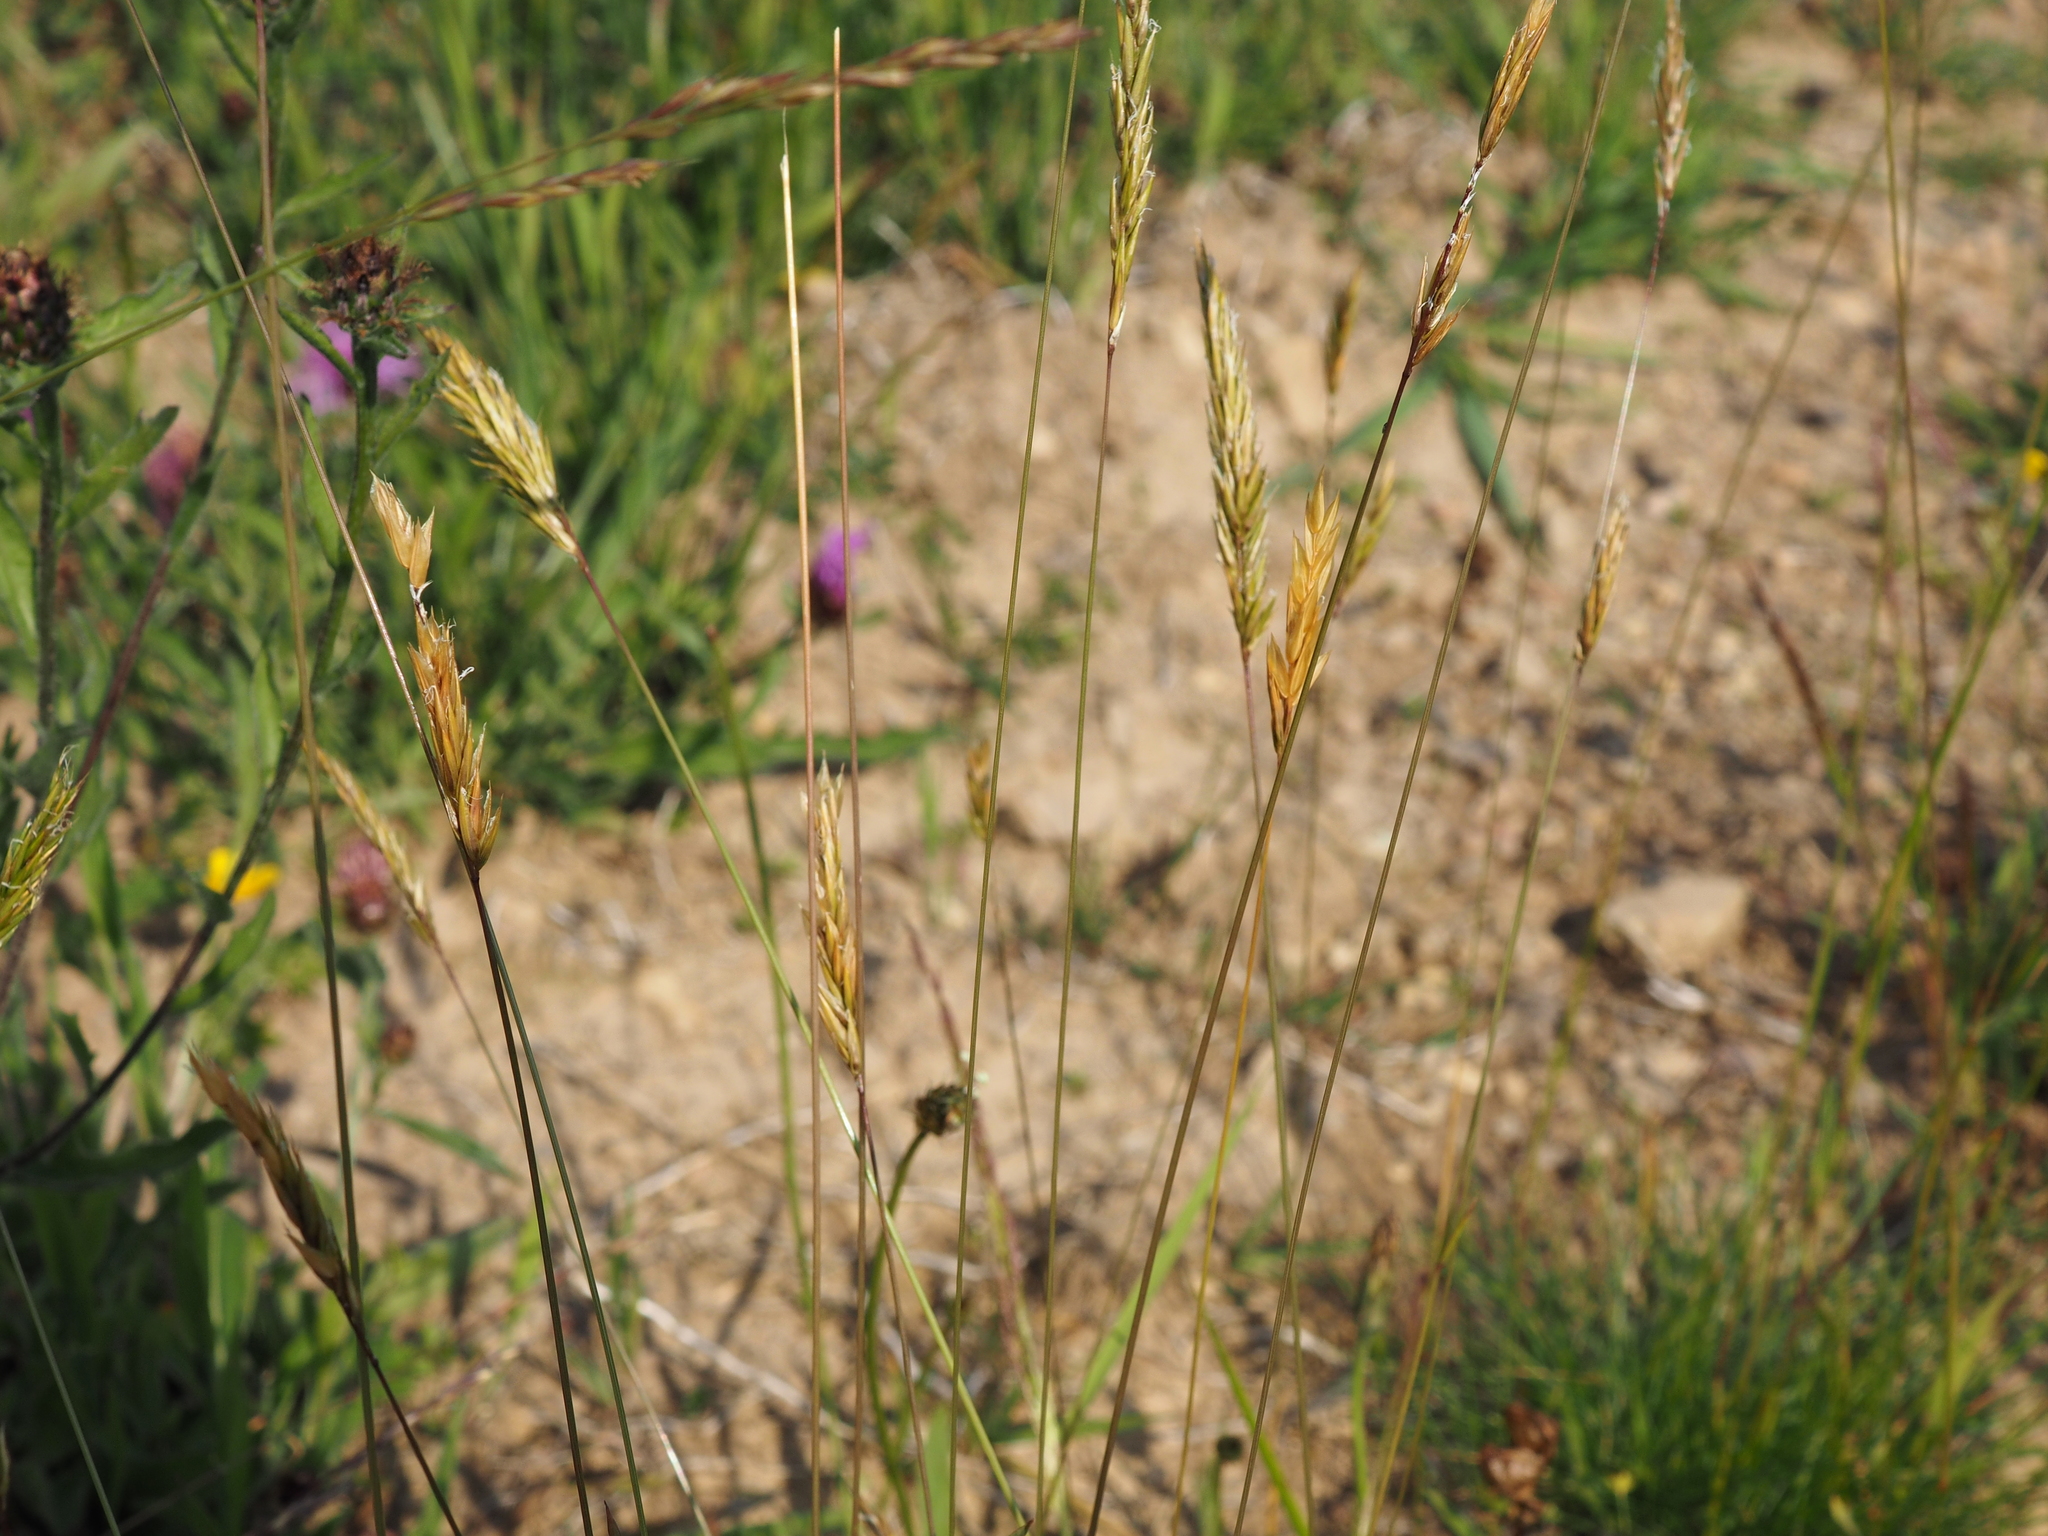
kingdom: Plantae
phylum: Tracheophyta
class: Liliopsida
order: Poales
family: Poaceae
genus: Anthoxanthum
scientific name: Anthoxanthum odoratum
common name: Sweet vernalgrass
